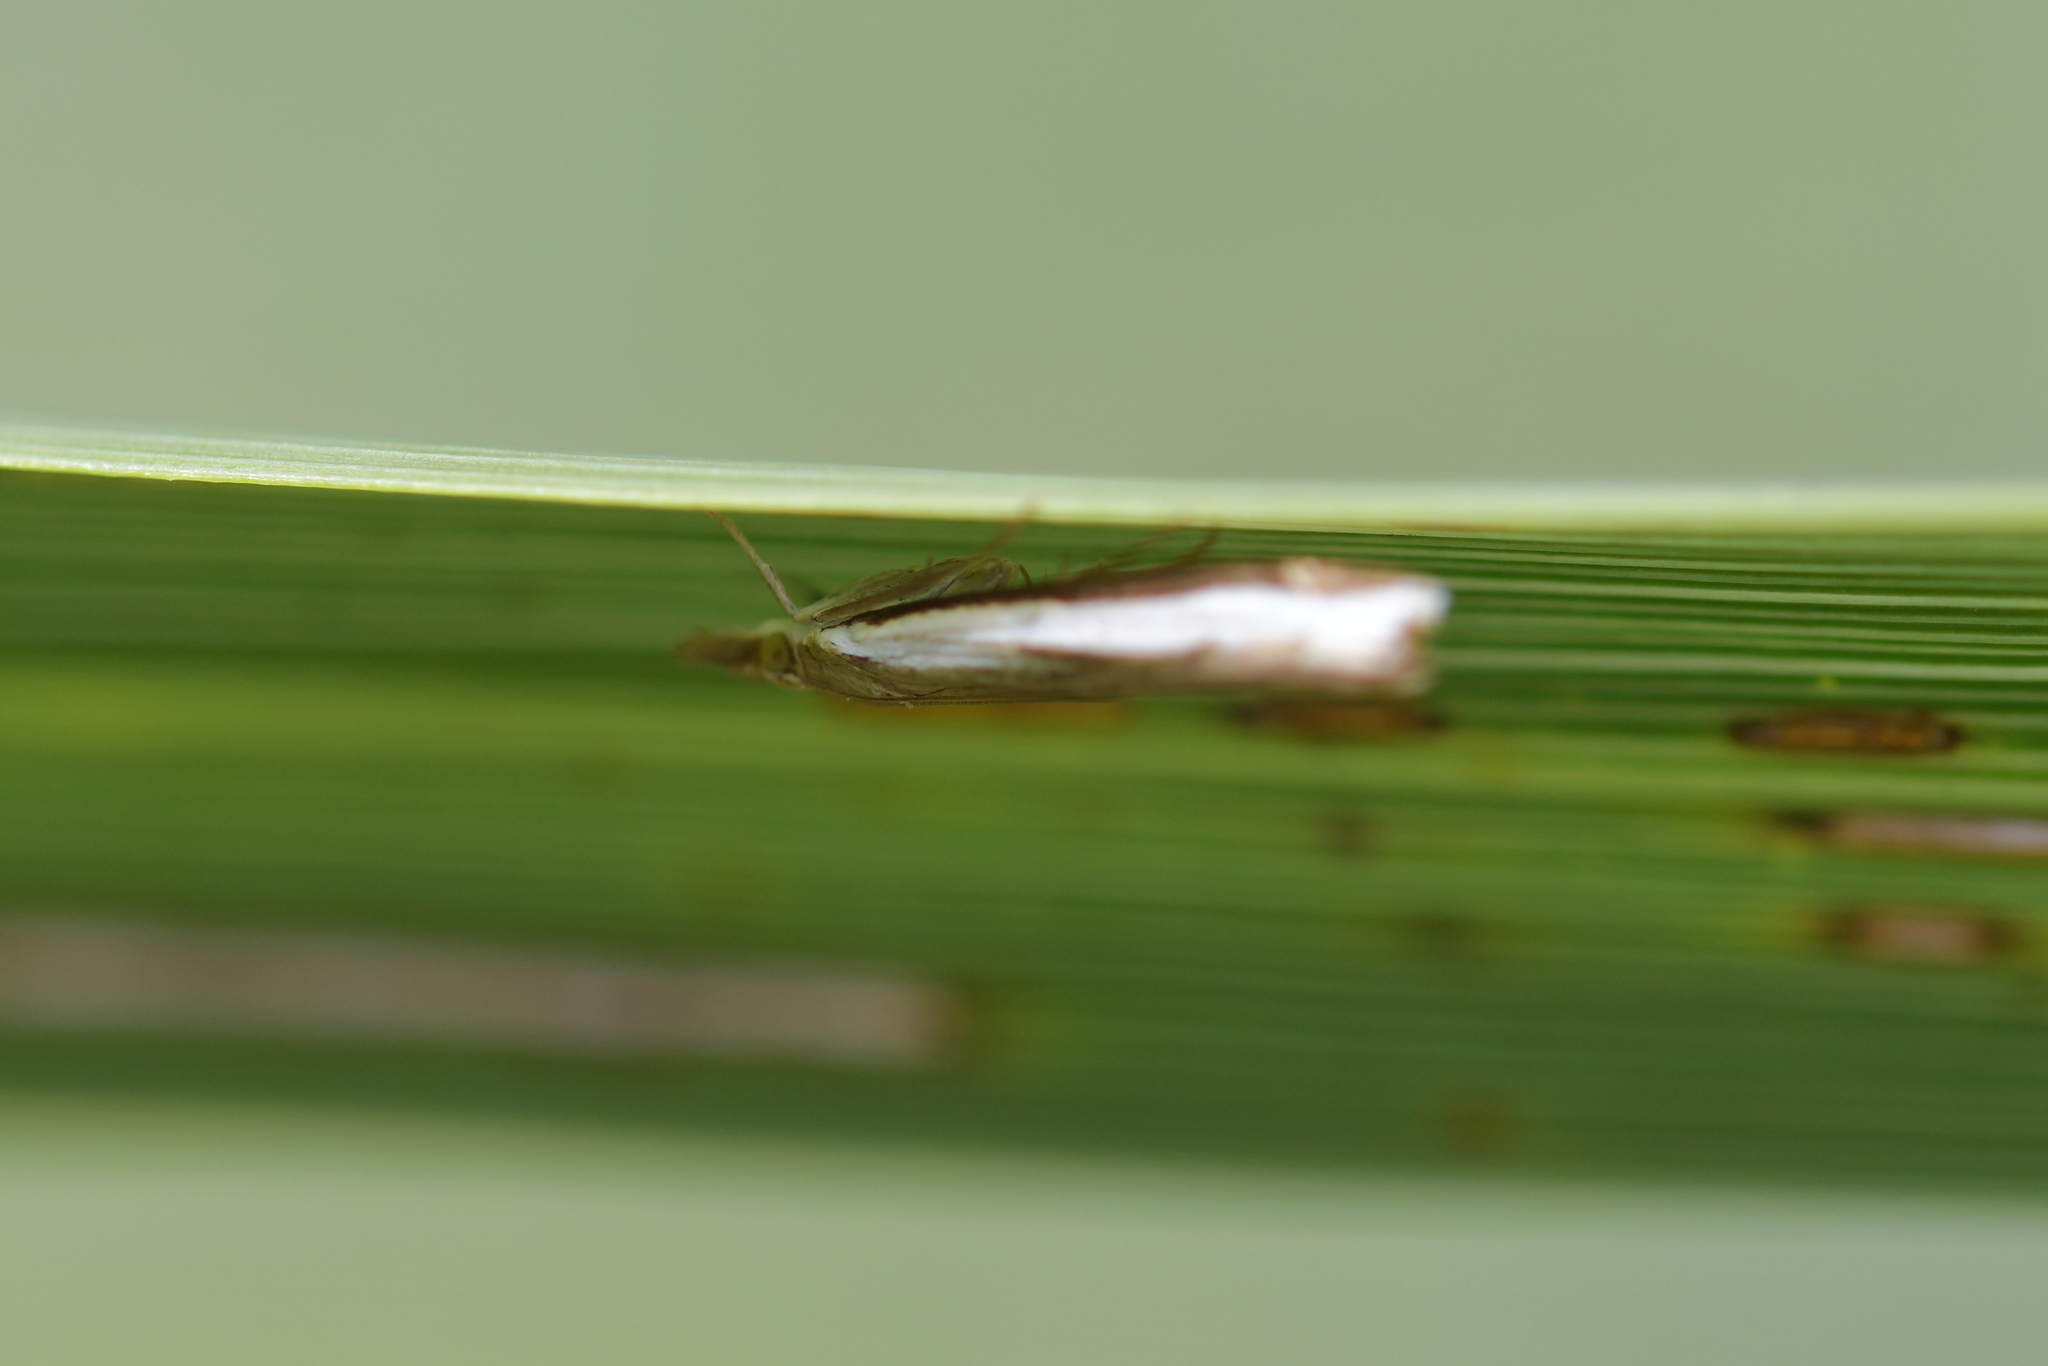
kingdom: Animalia
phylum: Arthropoda
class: Insecta
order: Lepidoptera
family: Crambidae
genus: Orocrambus
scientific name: Orocrambus flexuosellus
